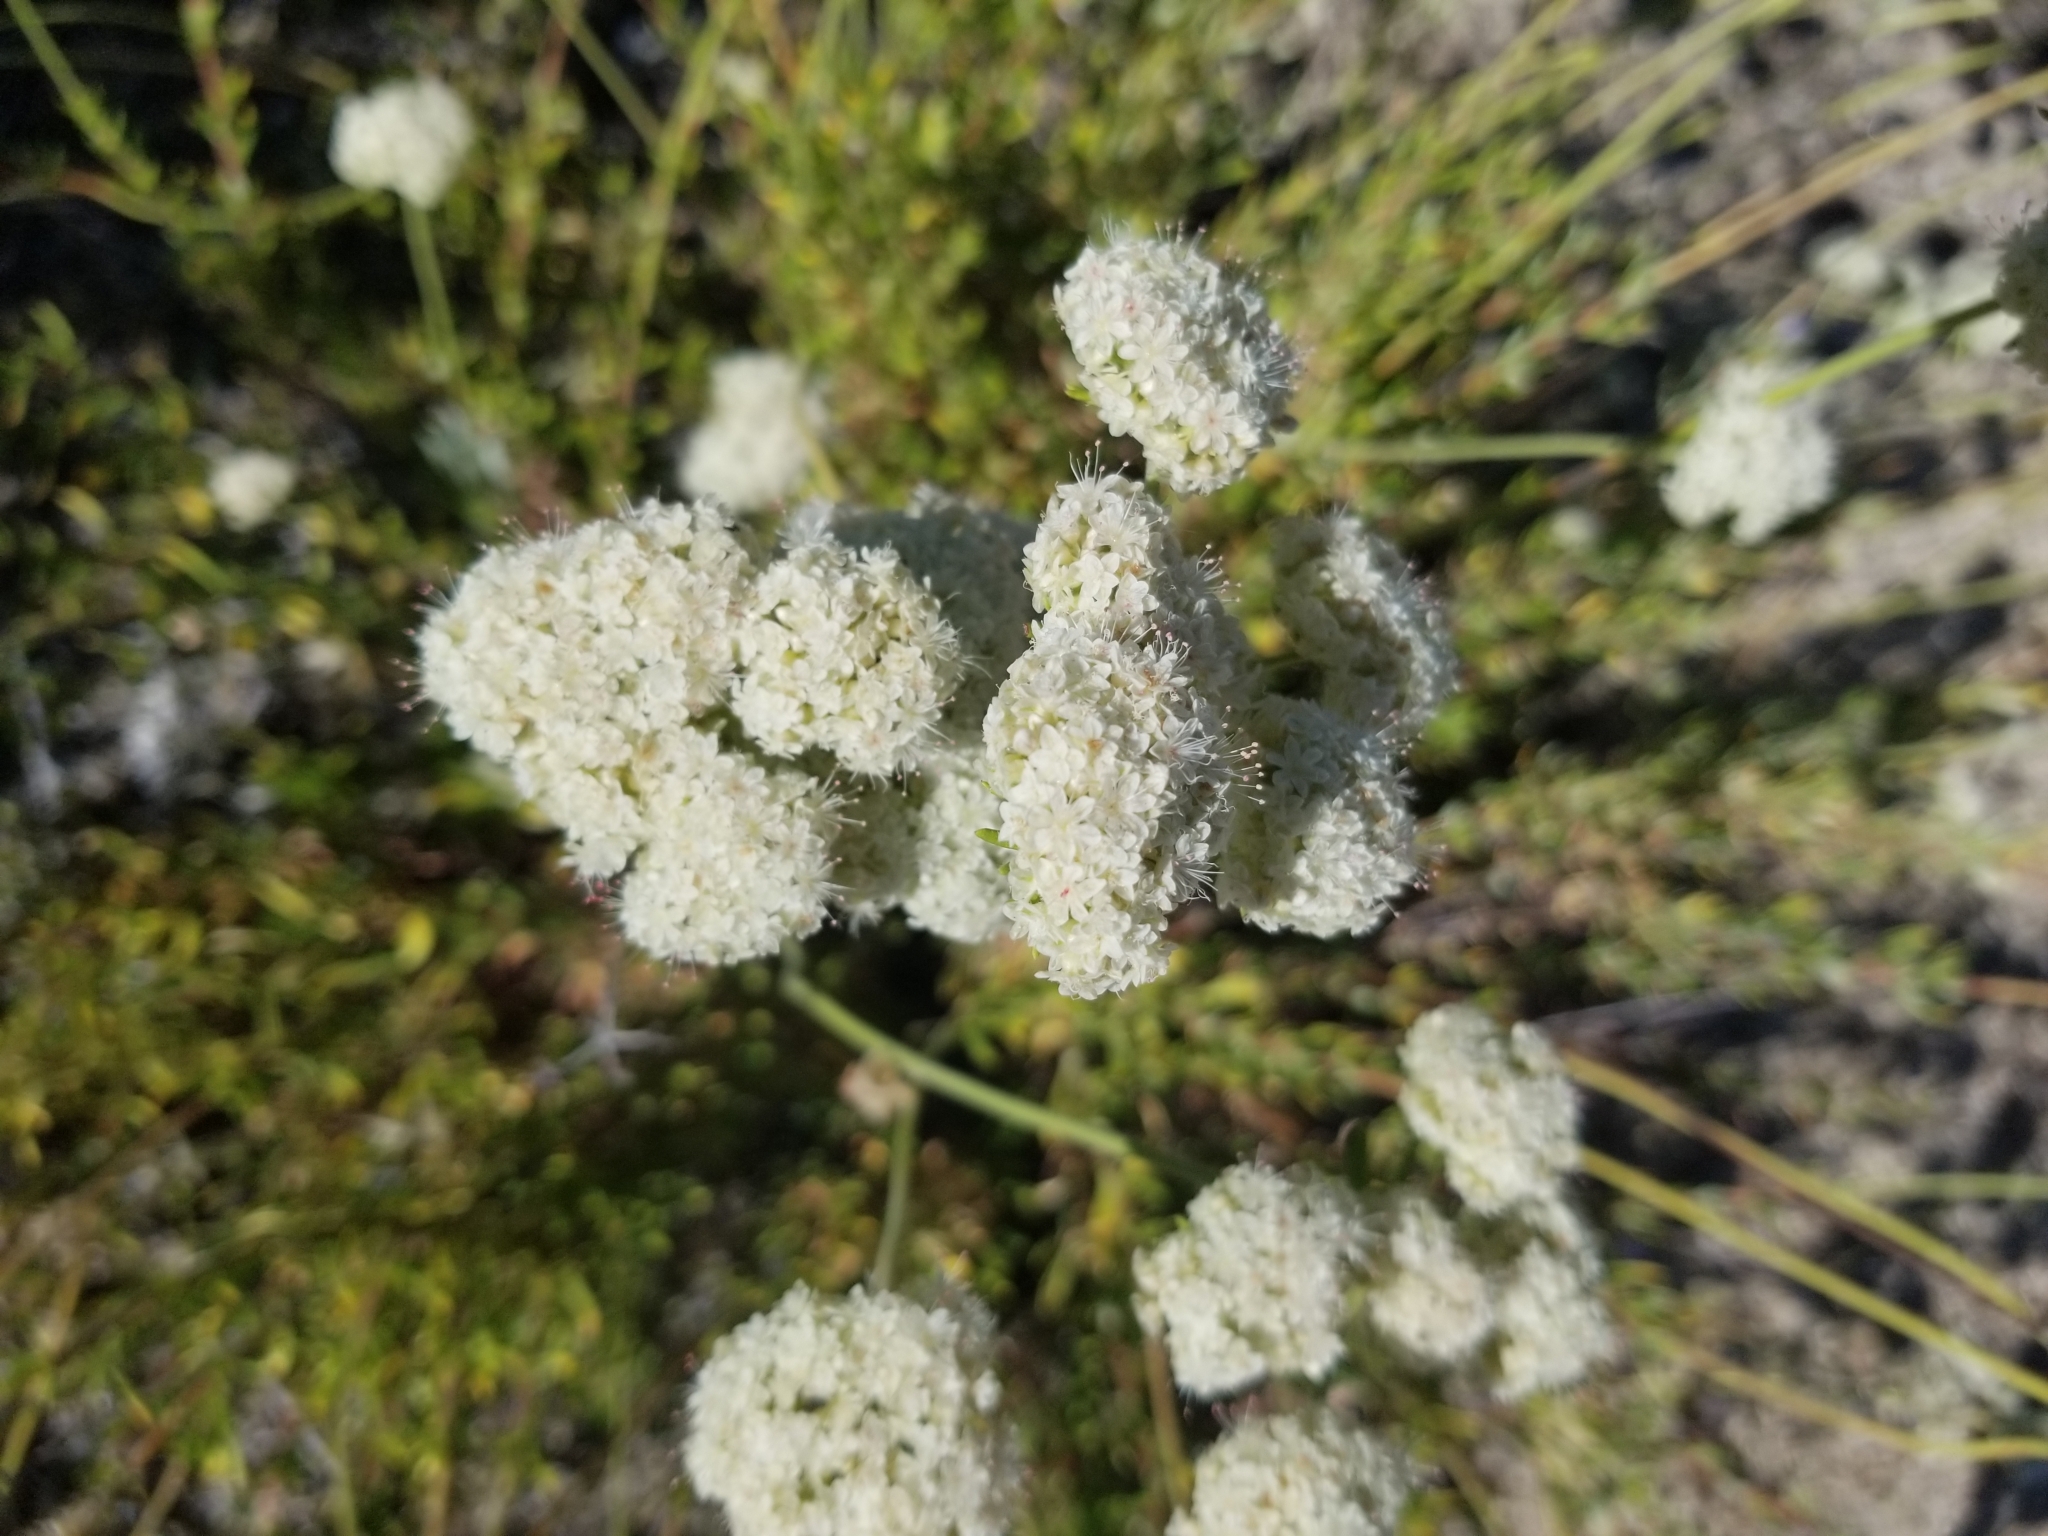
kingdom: Plantae
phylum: Tracheophyta
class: Magnoliopsida
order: Caryophyllales
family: Polygonaceae
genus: Eriogonum
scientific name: Eriogonum fasciculatum
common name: California wild buckwheat
